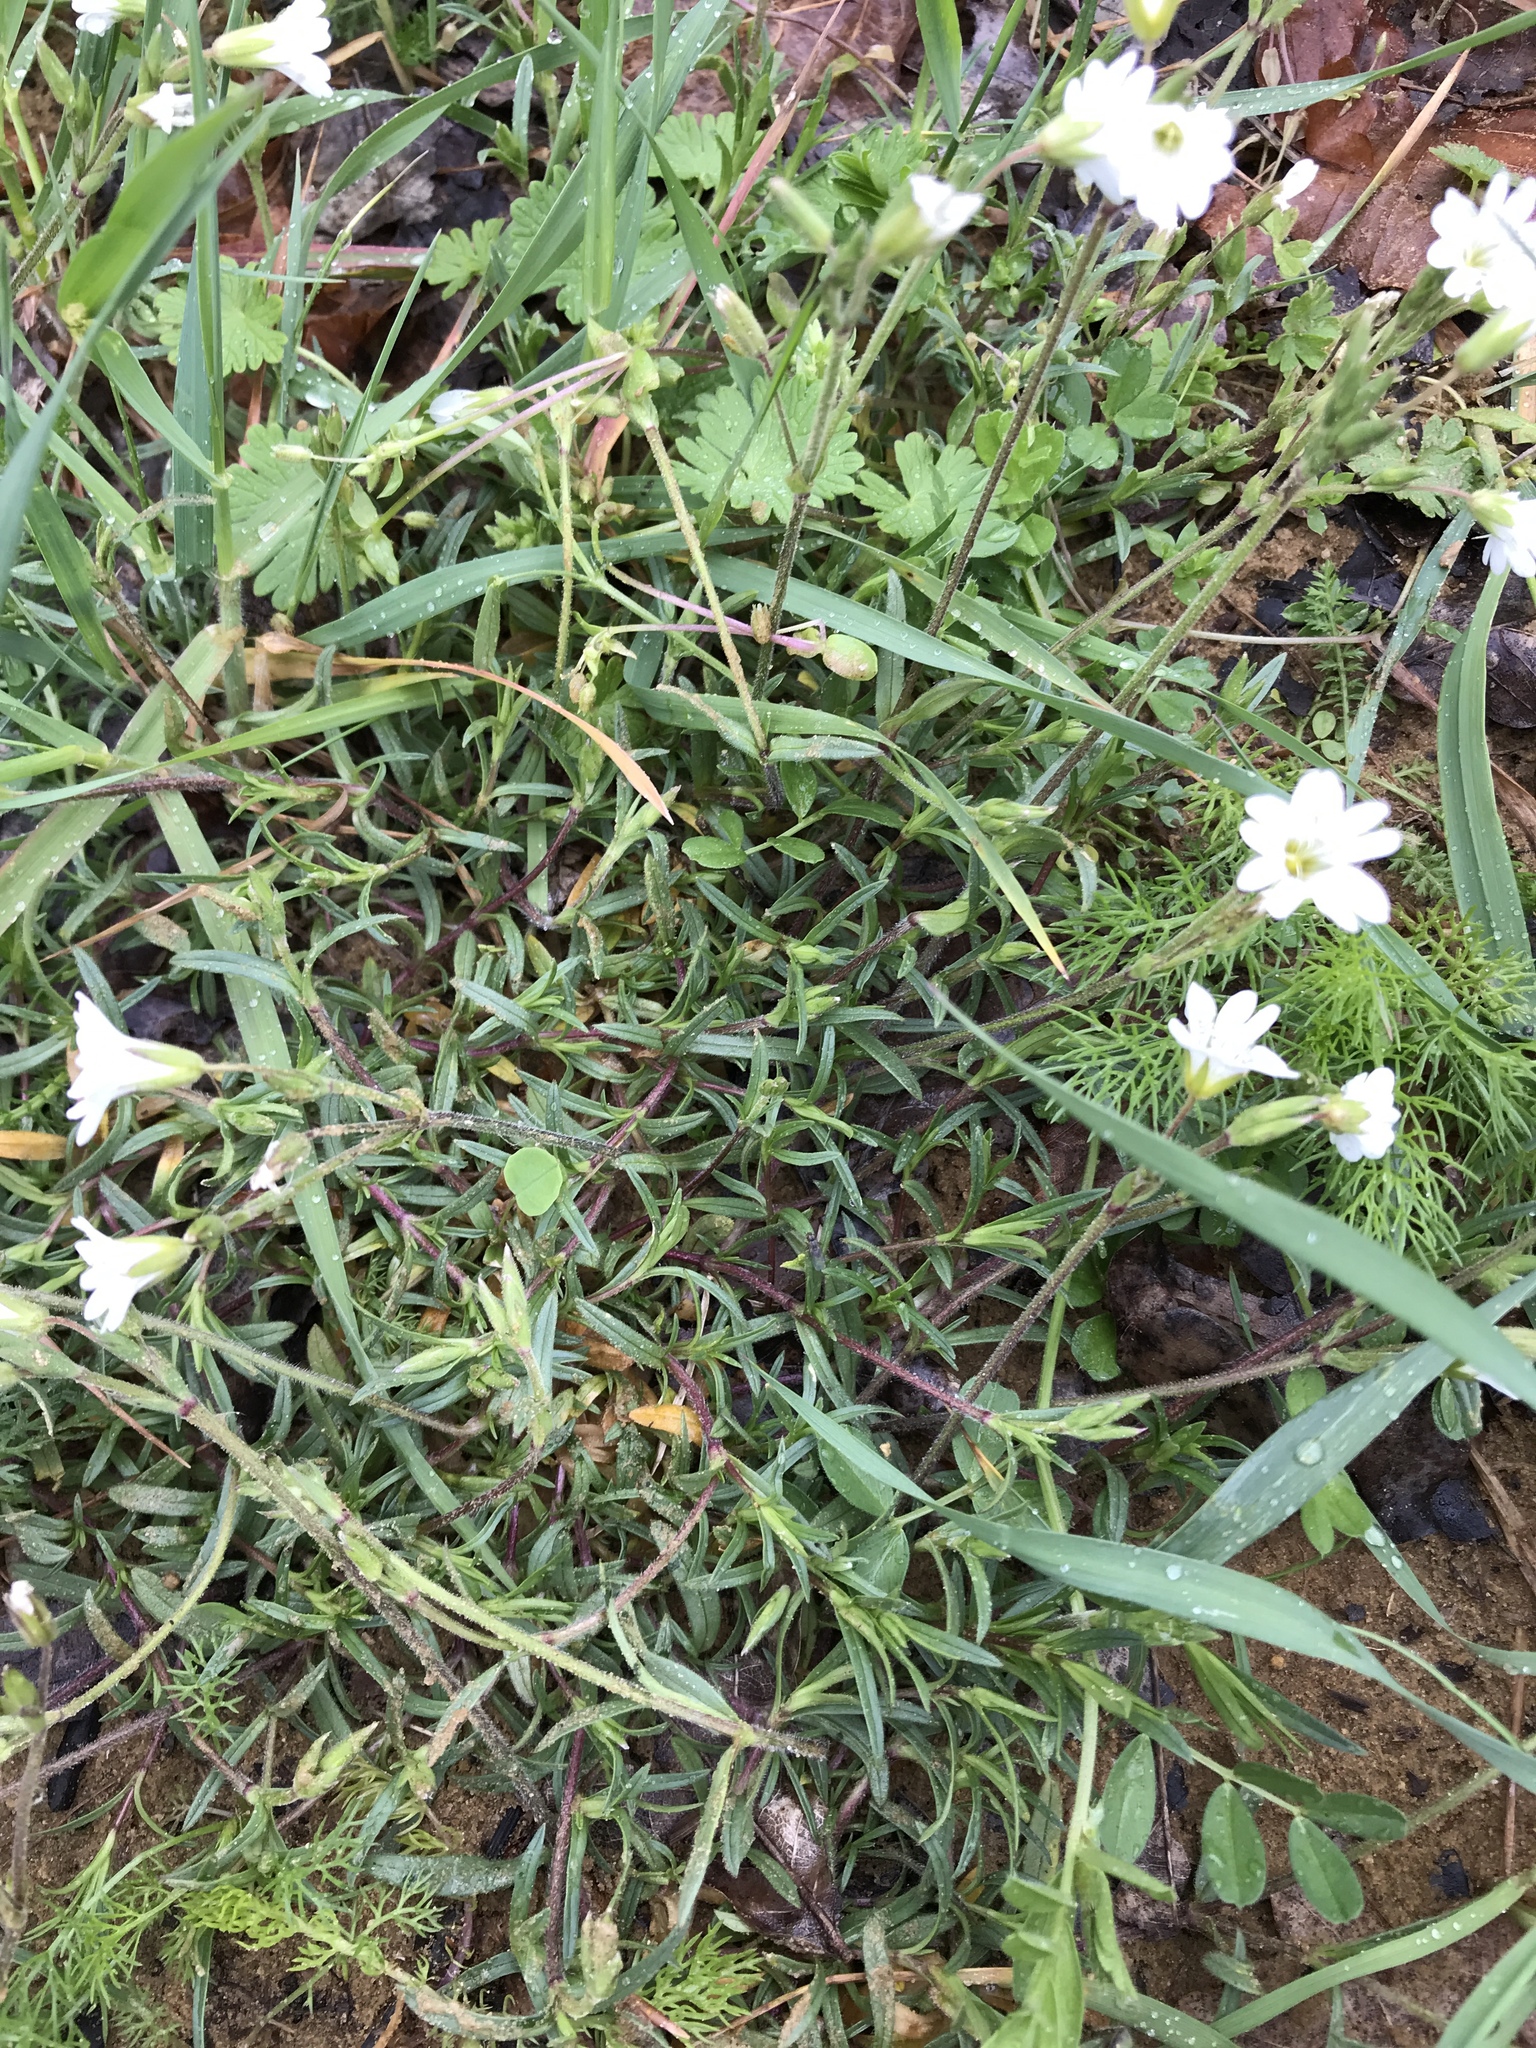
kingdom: Plantae
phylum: Tracheophyta
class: Magnoliopsida
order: Caryophyllales
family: Caryophyllaceae
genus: Cerastium
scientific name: Cerastium arvense
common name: Field mouse-ear
